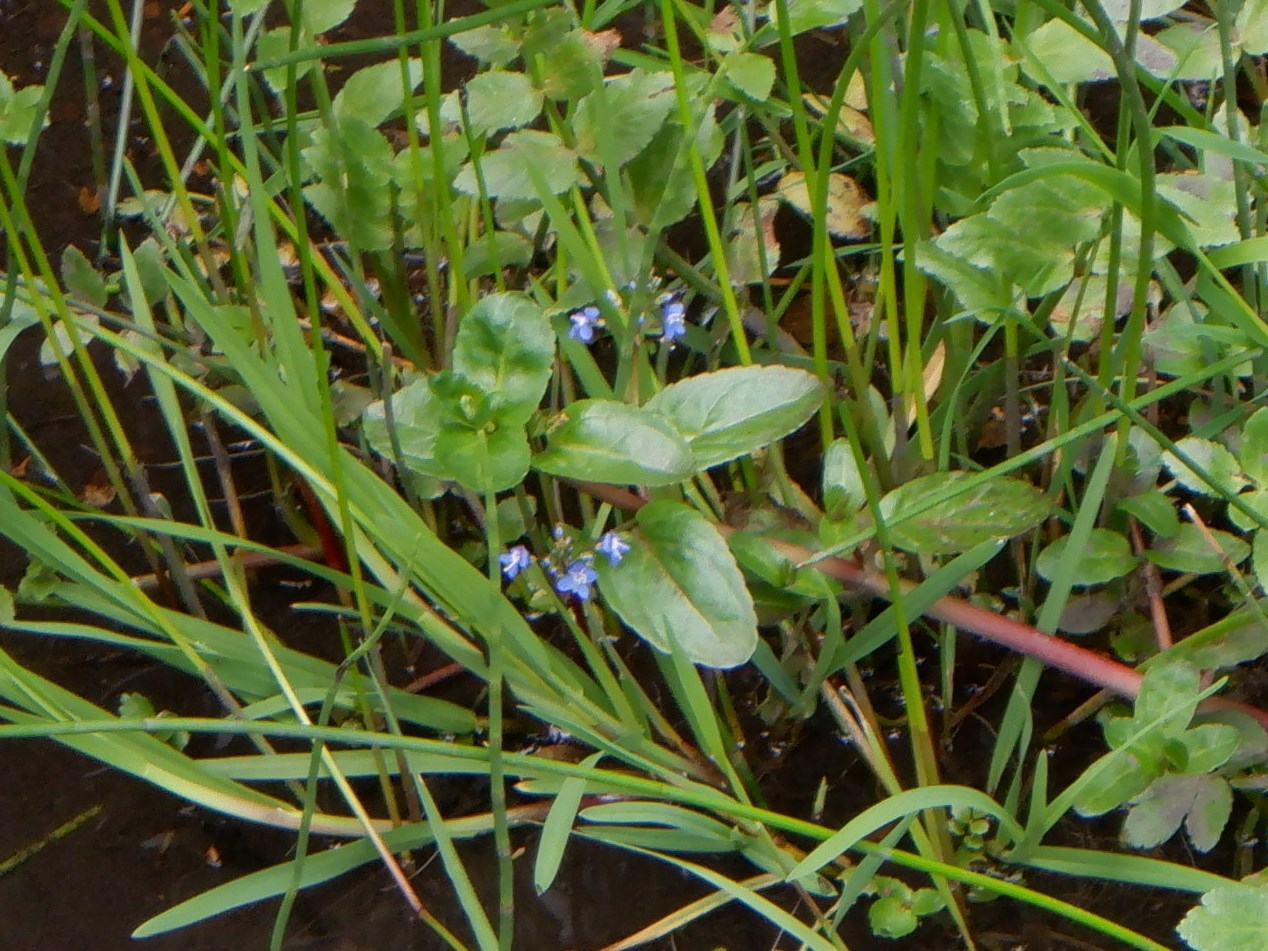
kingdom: Plantae
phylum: Tracheophyta
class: Magnoliopsida
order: Lamiales
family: Plantaginaceae
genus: Veronica
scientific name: Veronica beccabunga
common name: Brooklime
